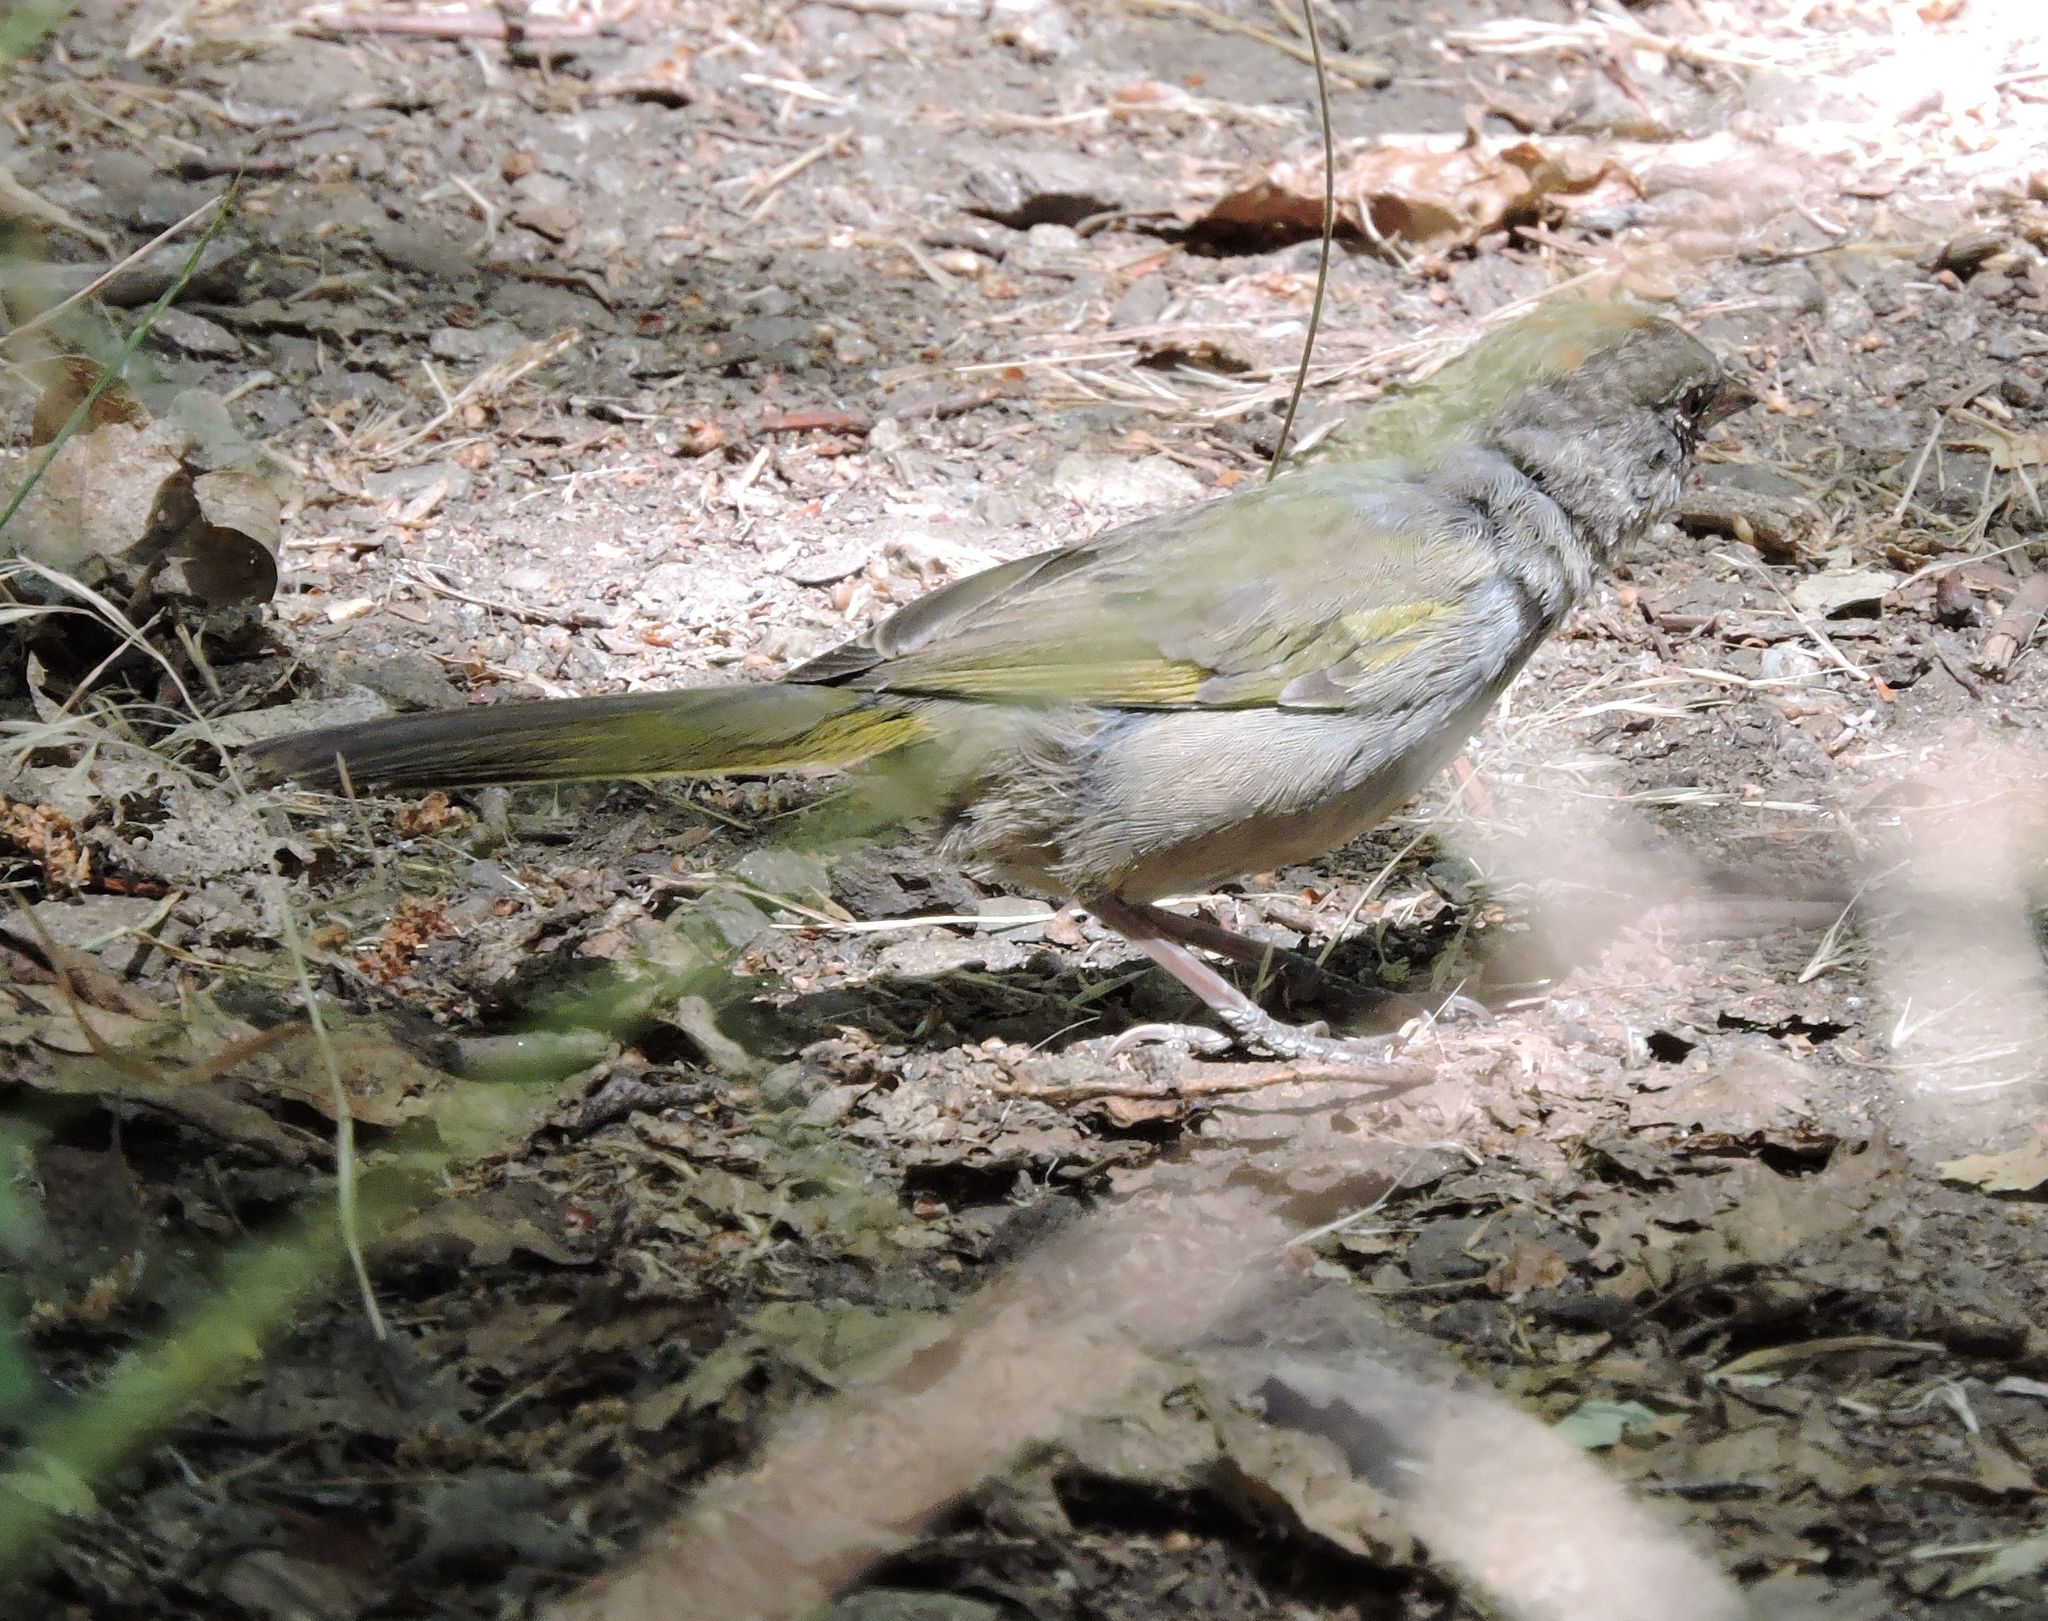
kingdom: Animalia
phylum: Chordata
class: Aves
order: Passeriformes
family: Passerellidae
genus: Pipilo
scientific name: Pipilo chlorurus
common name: Green-tailed towhee
